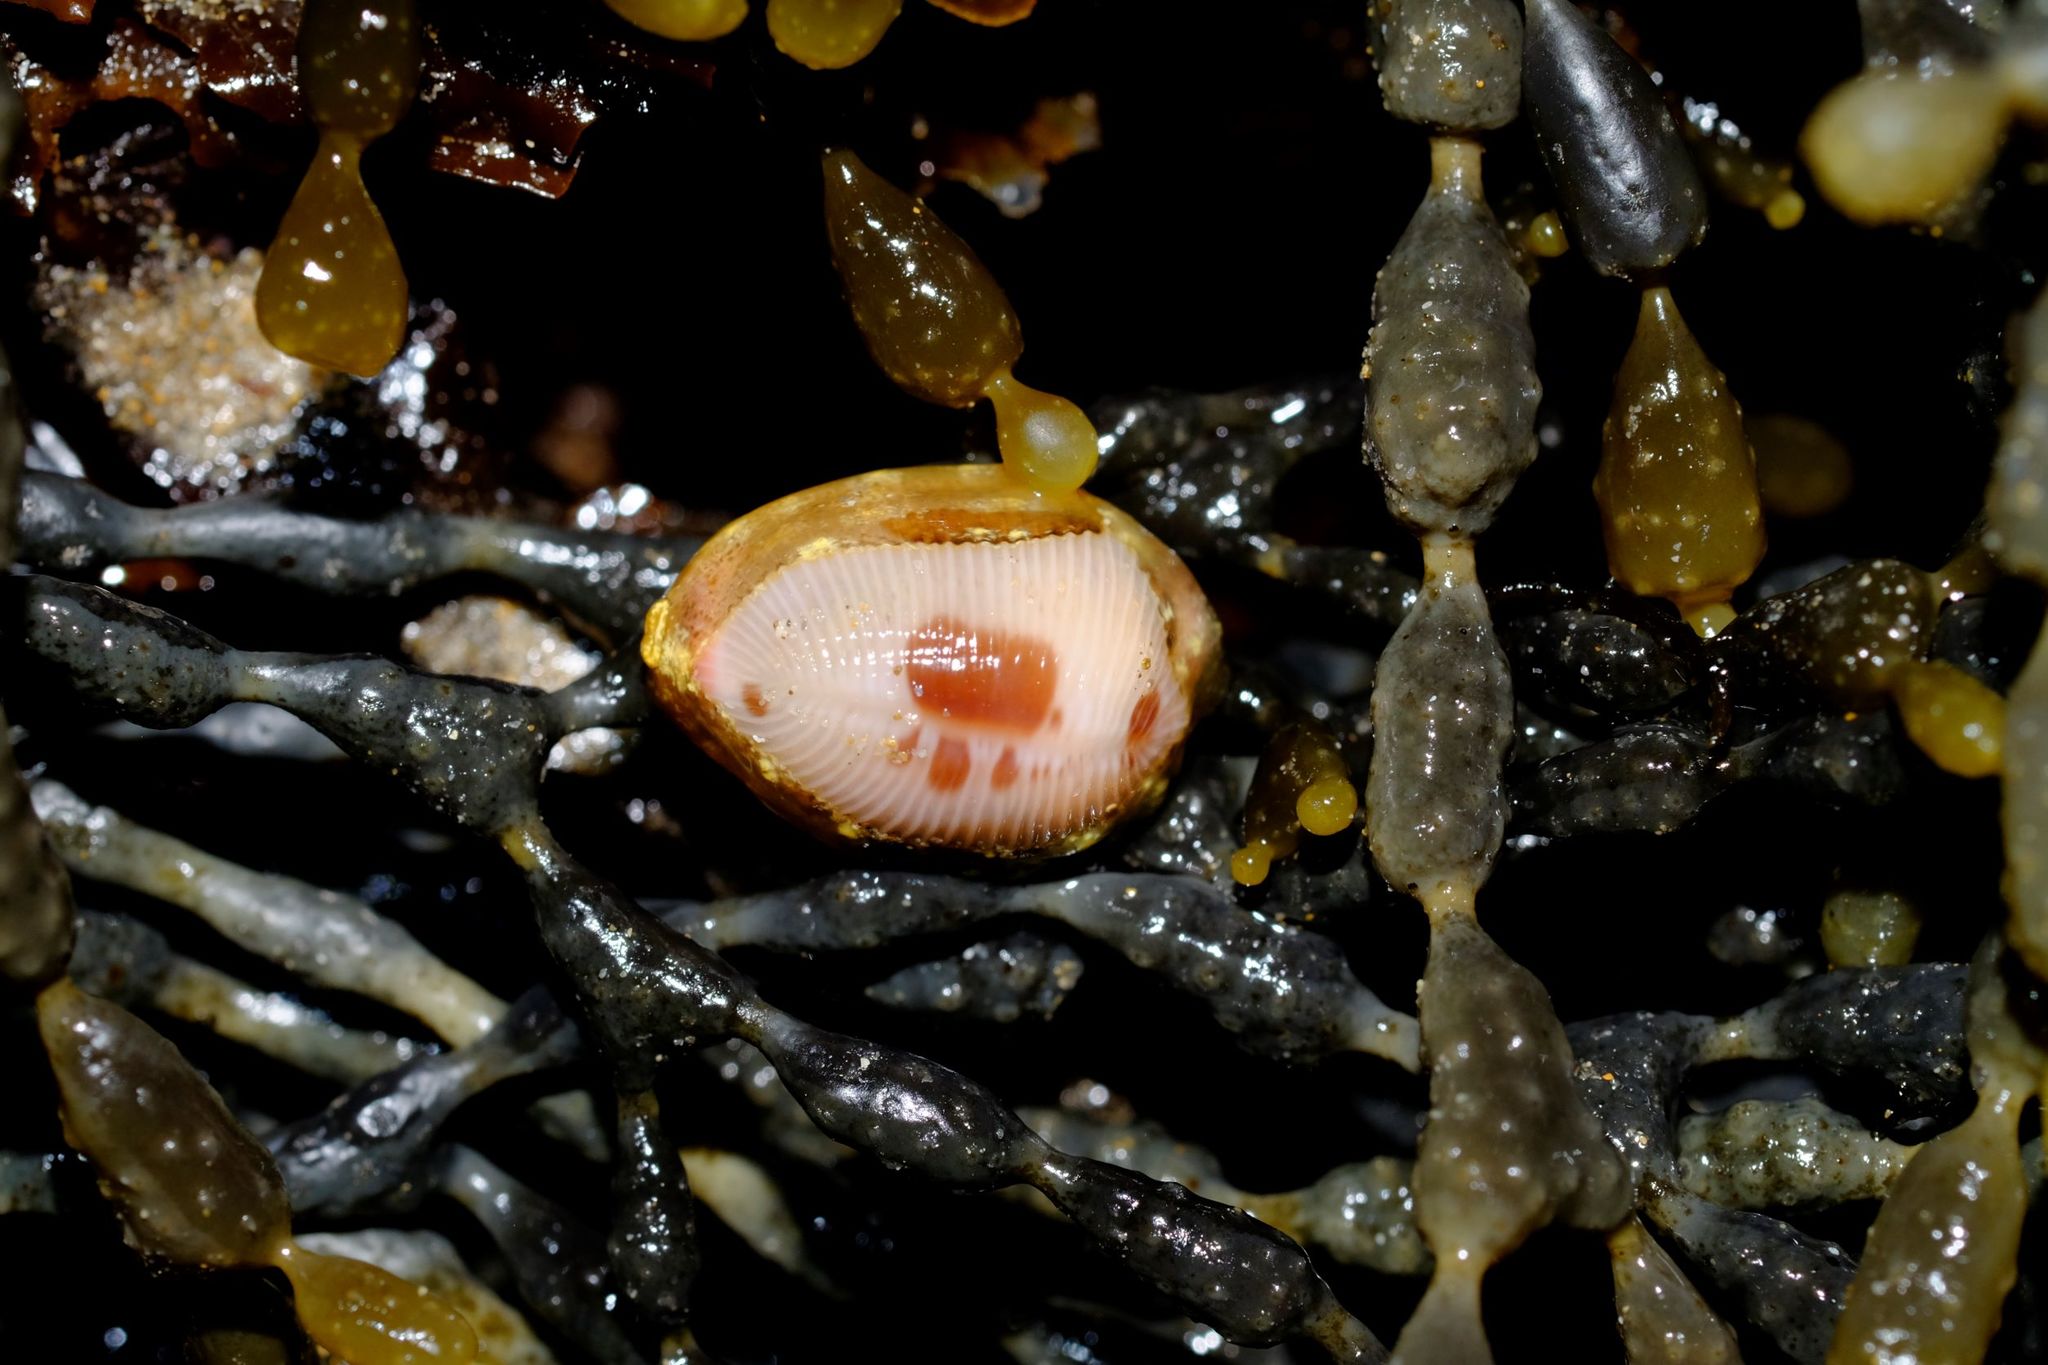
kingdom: Animalia
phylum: Mollusca
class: Gastropoda
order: Littorinimorpha
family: Triviidae
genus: Ellatrivia
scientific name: Ellatrivia merces
